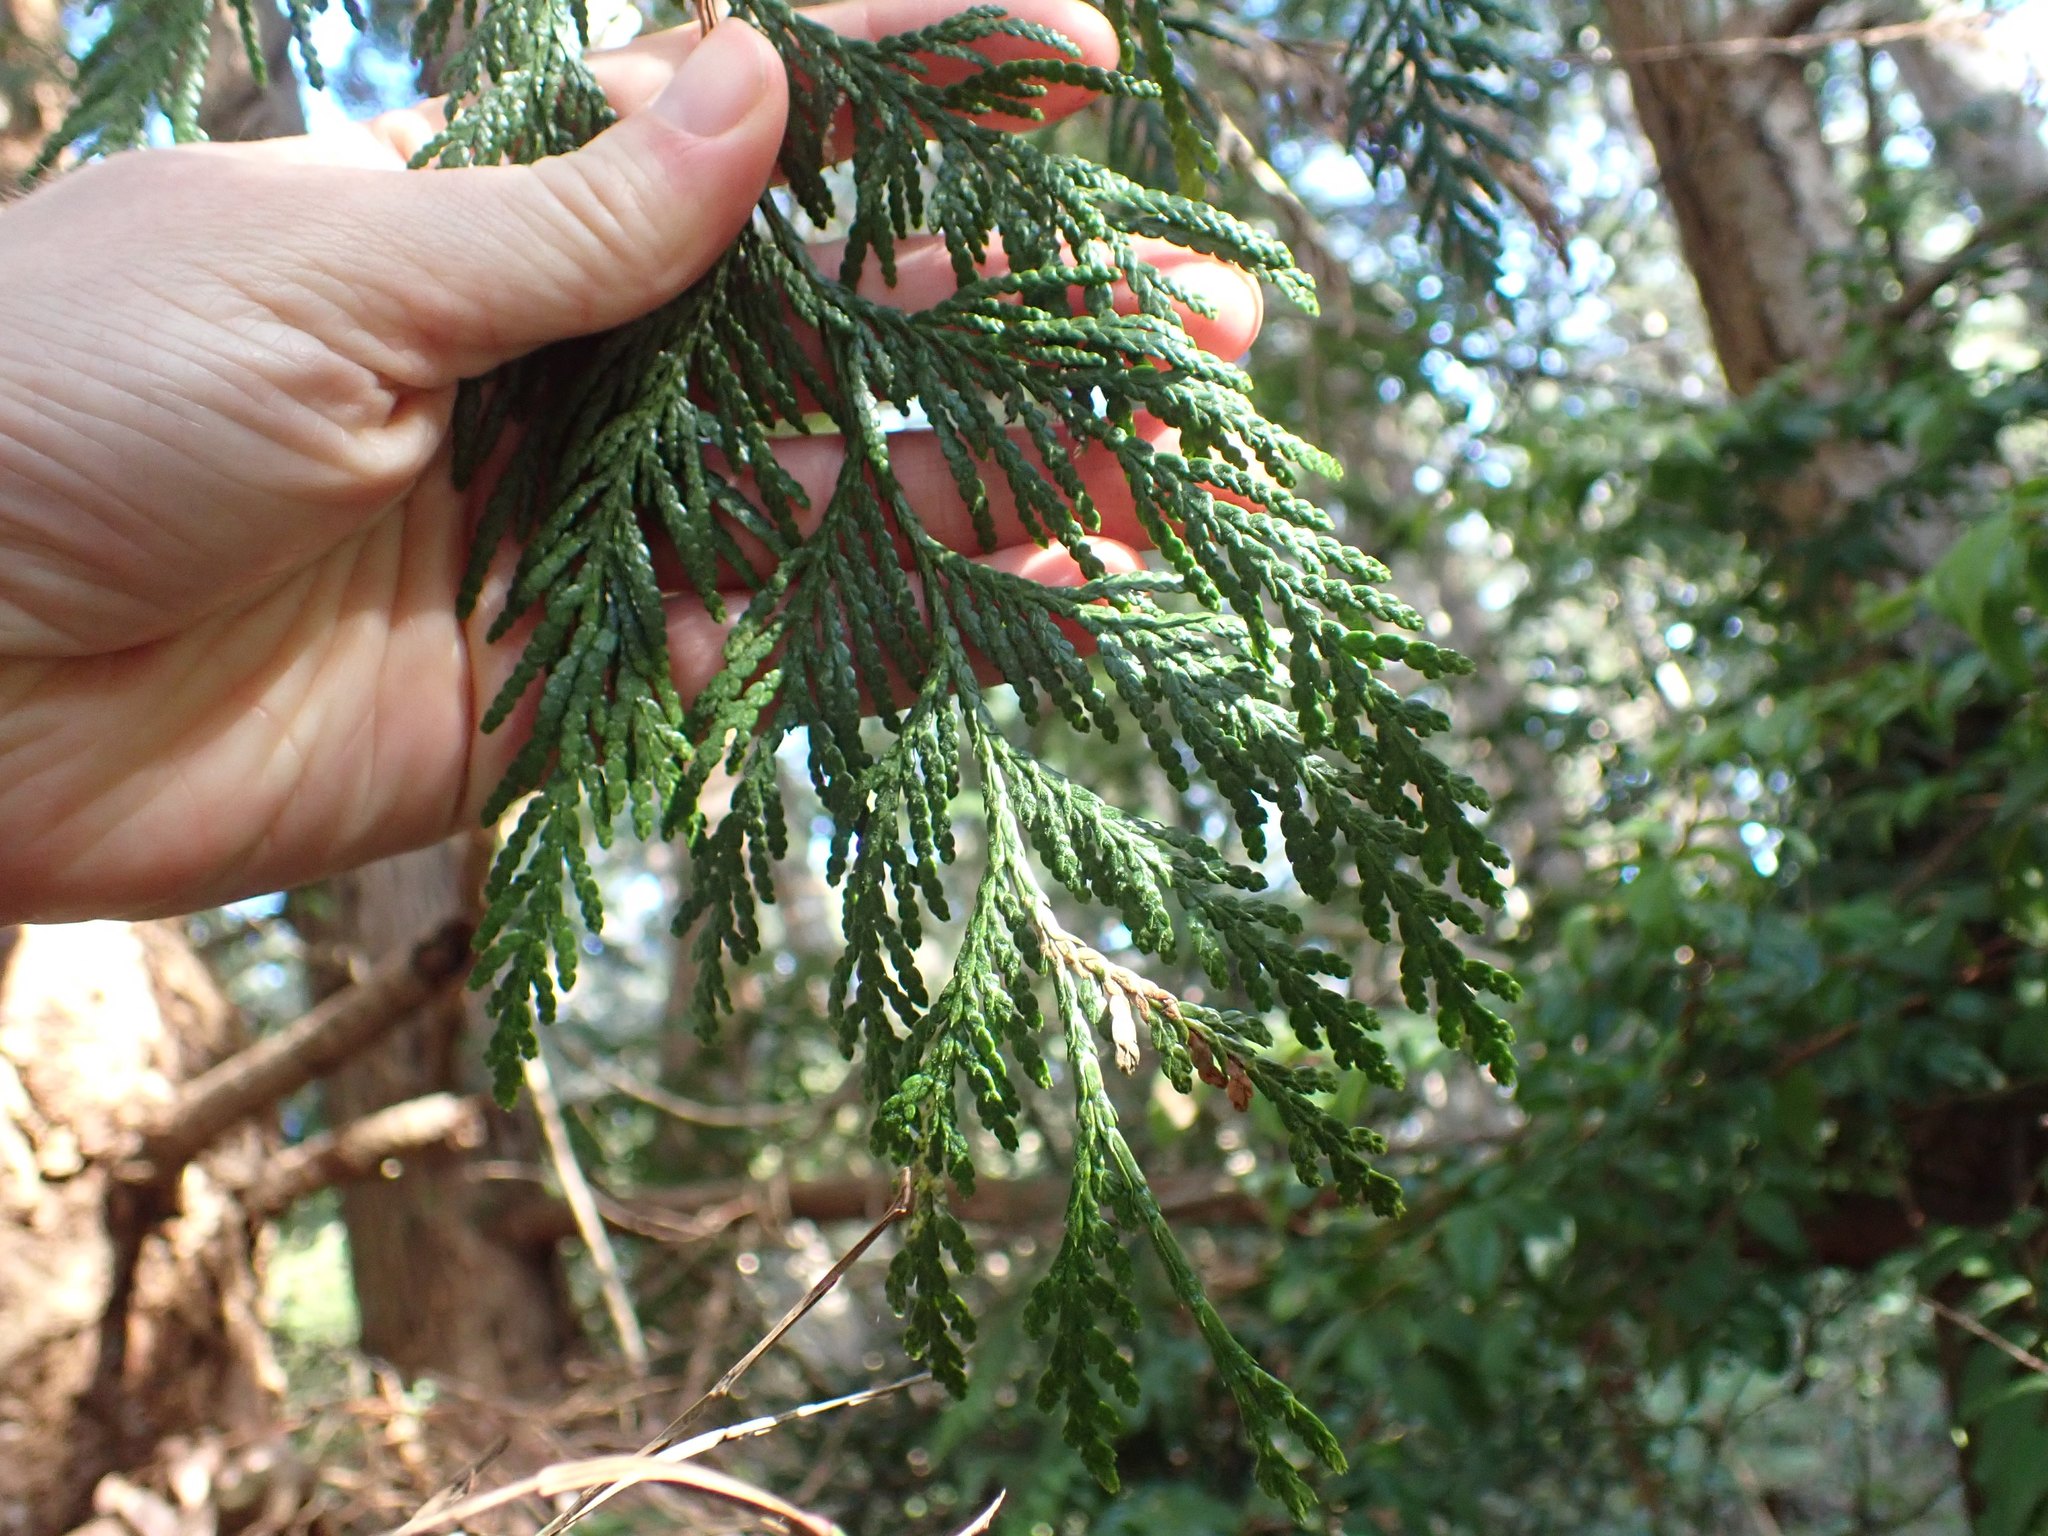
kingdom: Plantae
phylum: Tracheophyta
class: Pinopsida
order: Pinales
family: Cupressaceae
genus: Thuja
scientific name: Thuja plicata
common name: Western red-cedar
